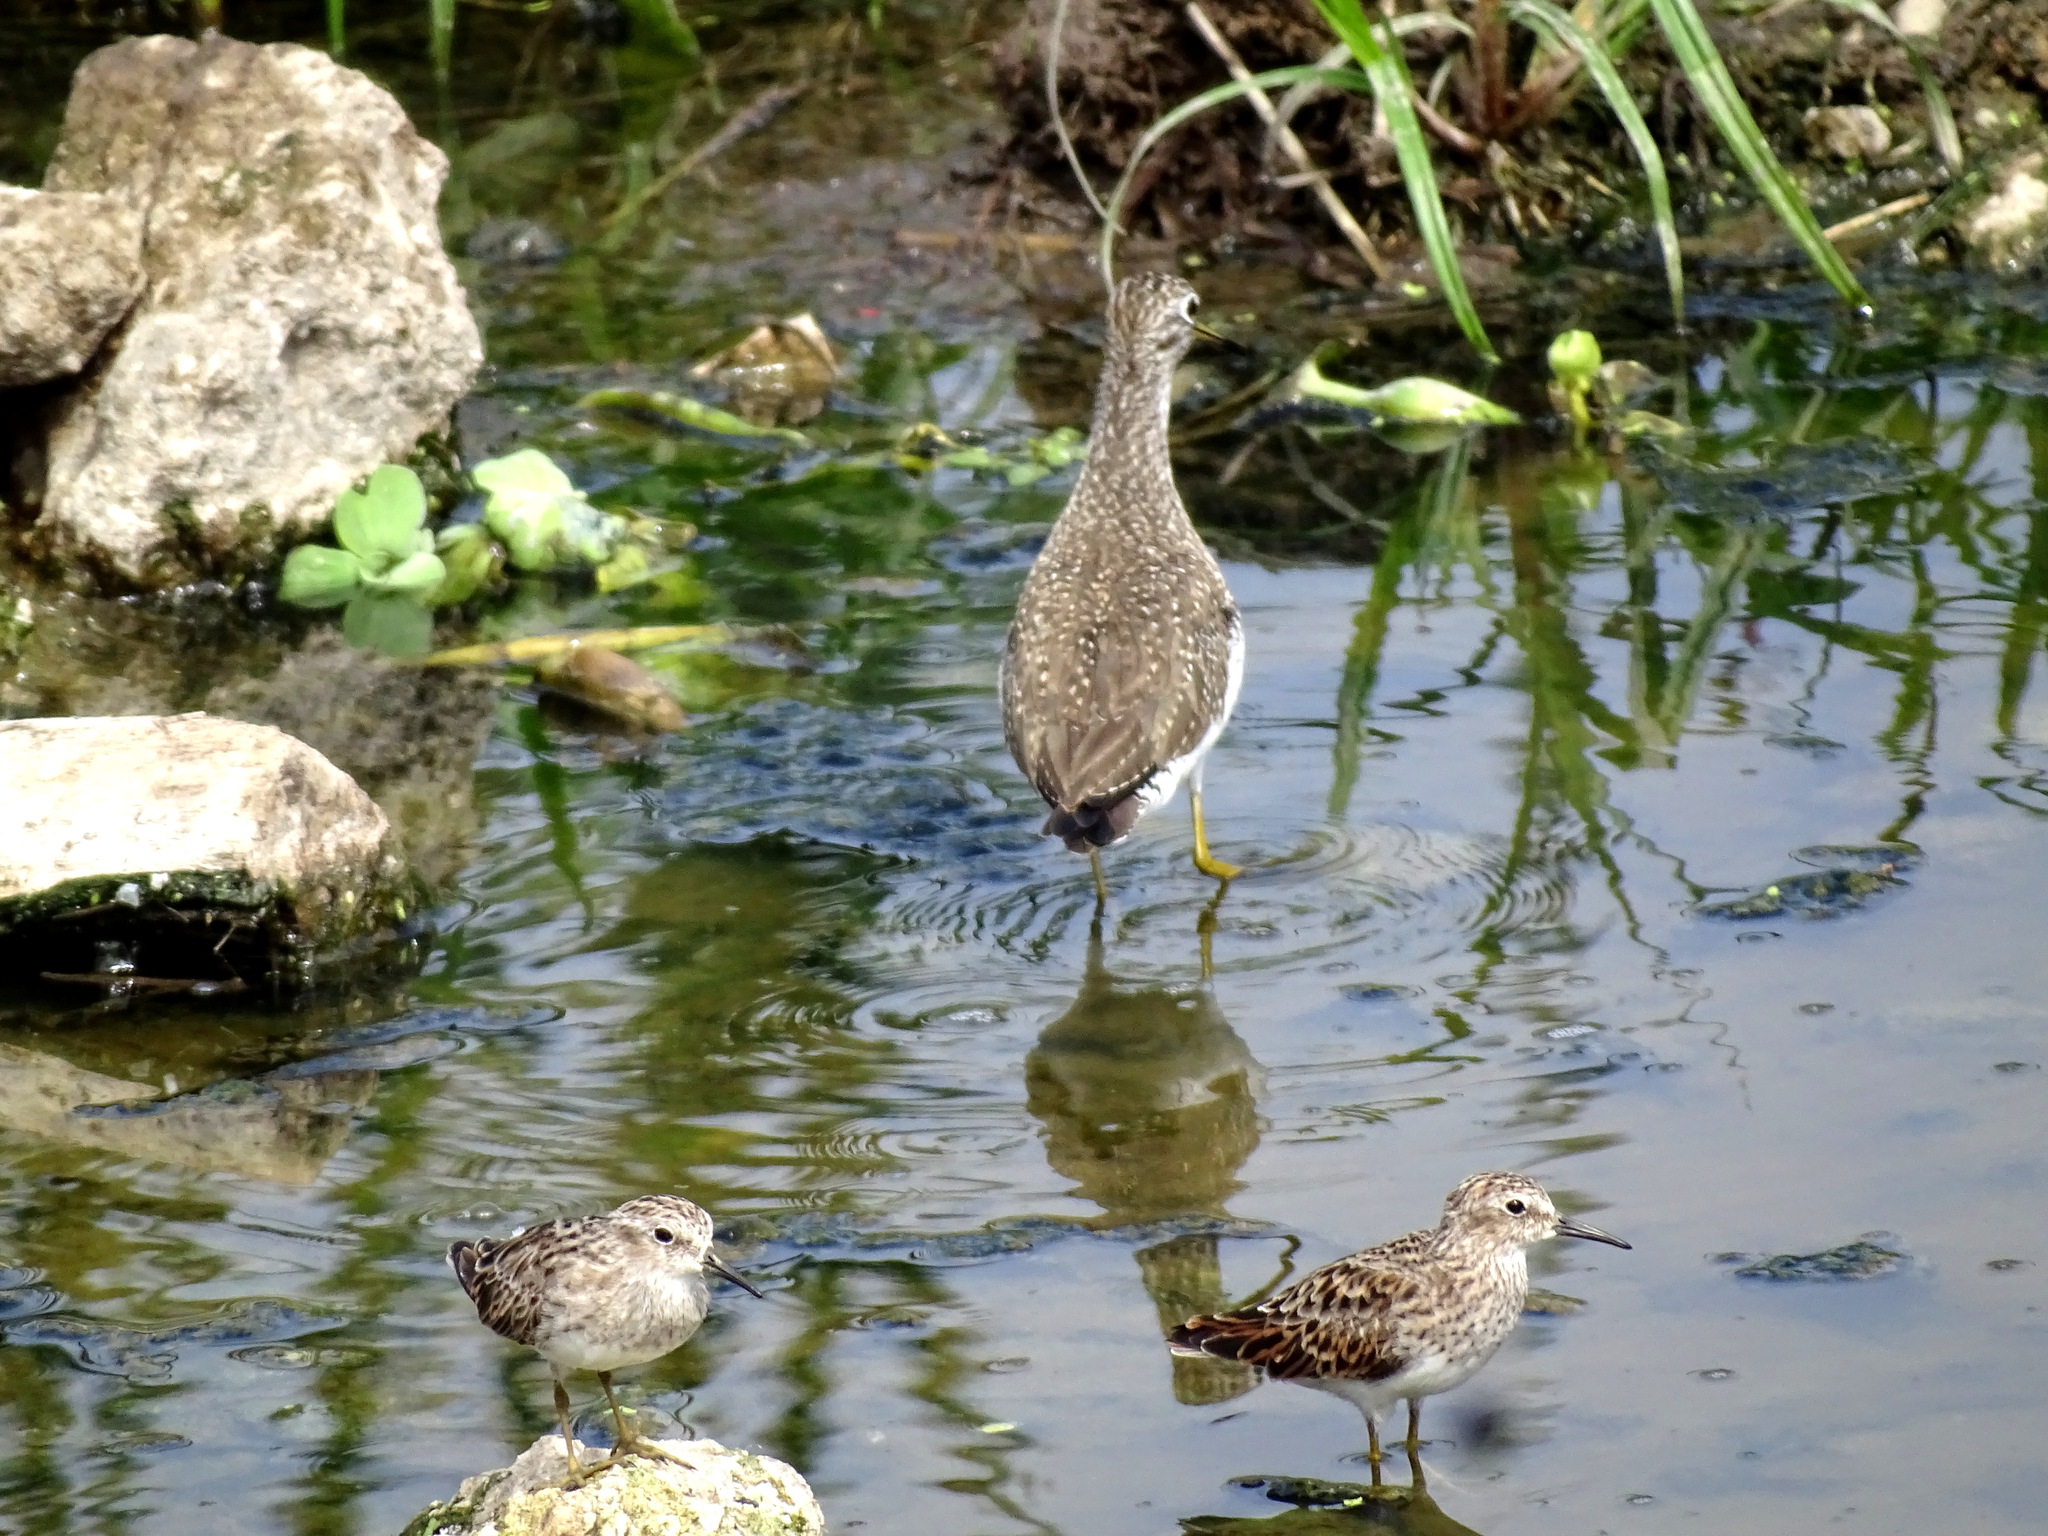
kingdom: Animalia
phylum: Chordata
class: Aves
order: Charadriiformes
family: Scolopacidae
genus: Tringa
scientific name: Tringa solitaria
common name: Solitary sandpiper
